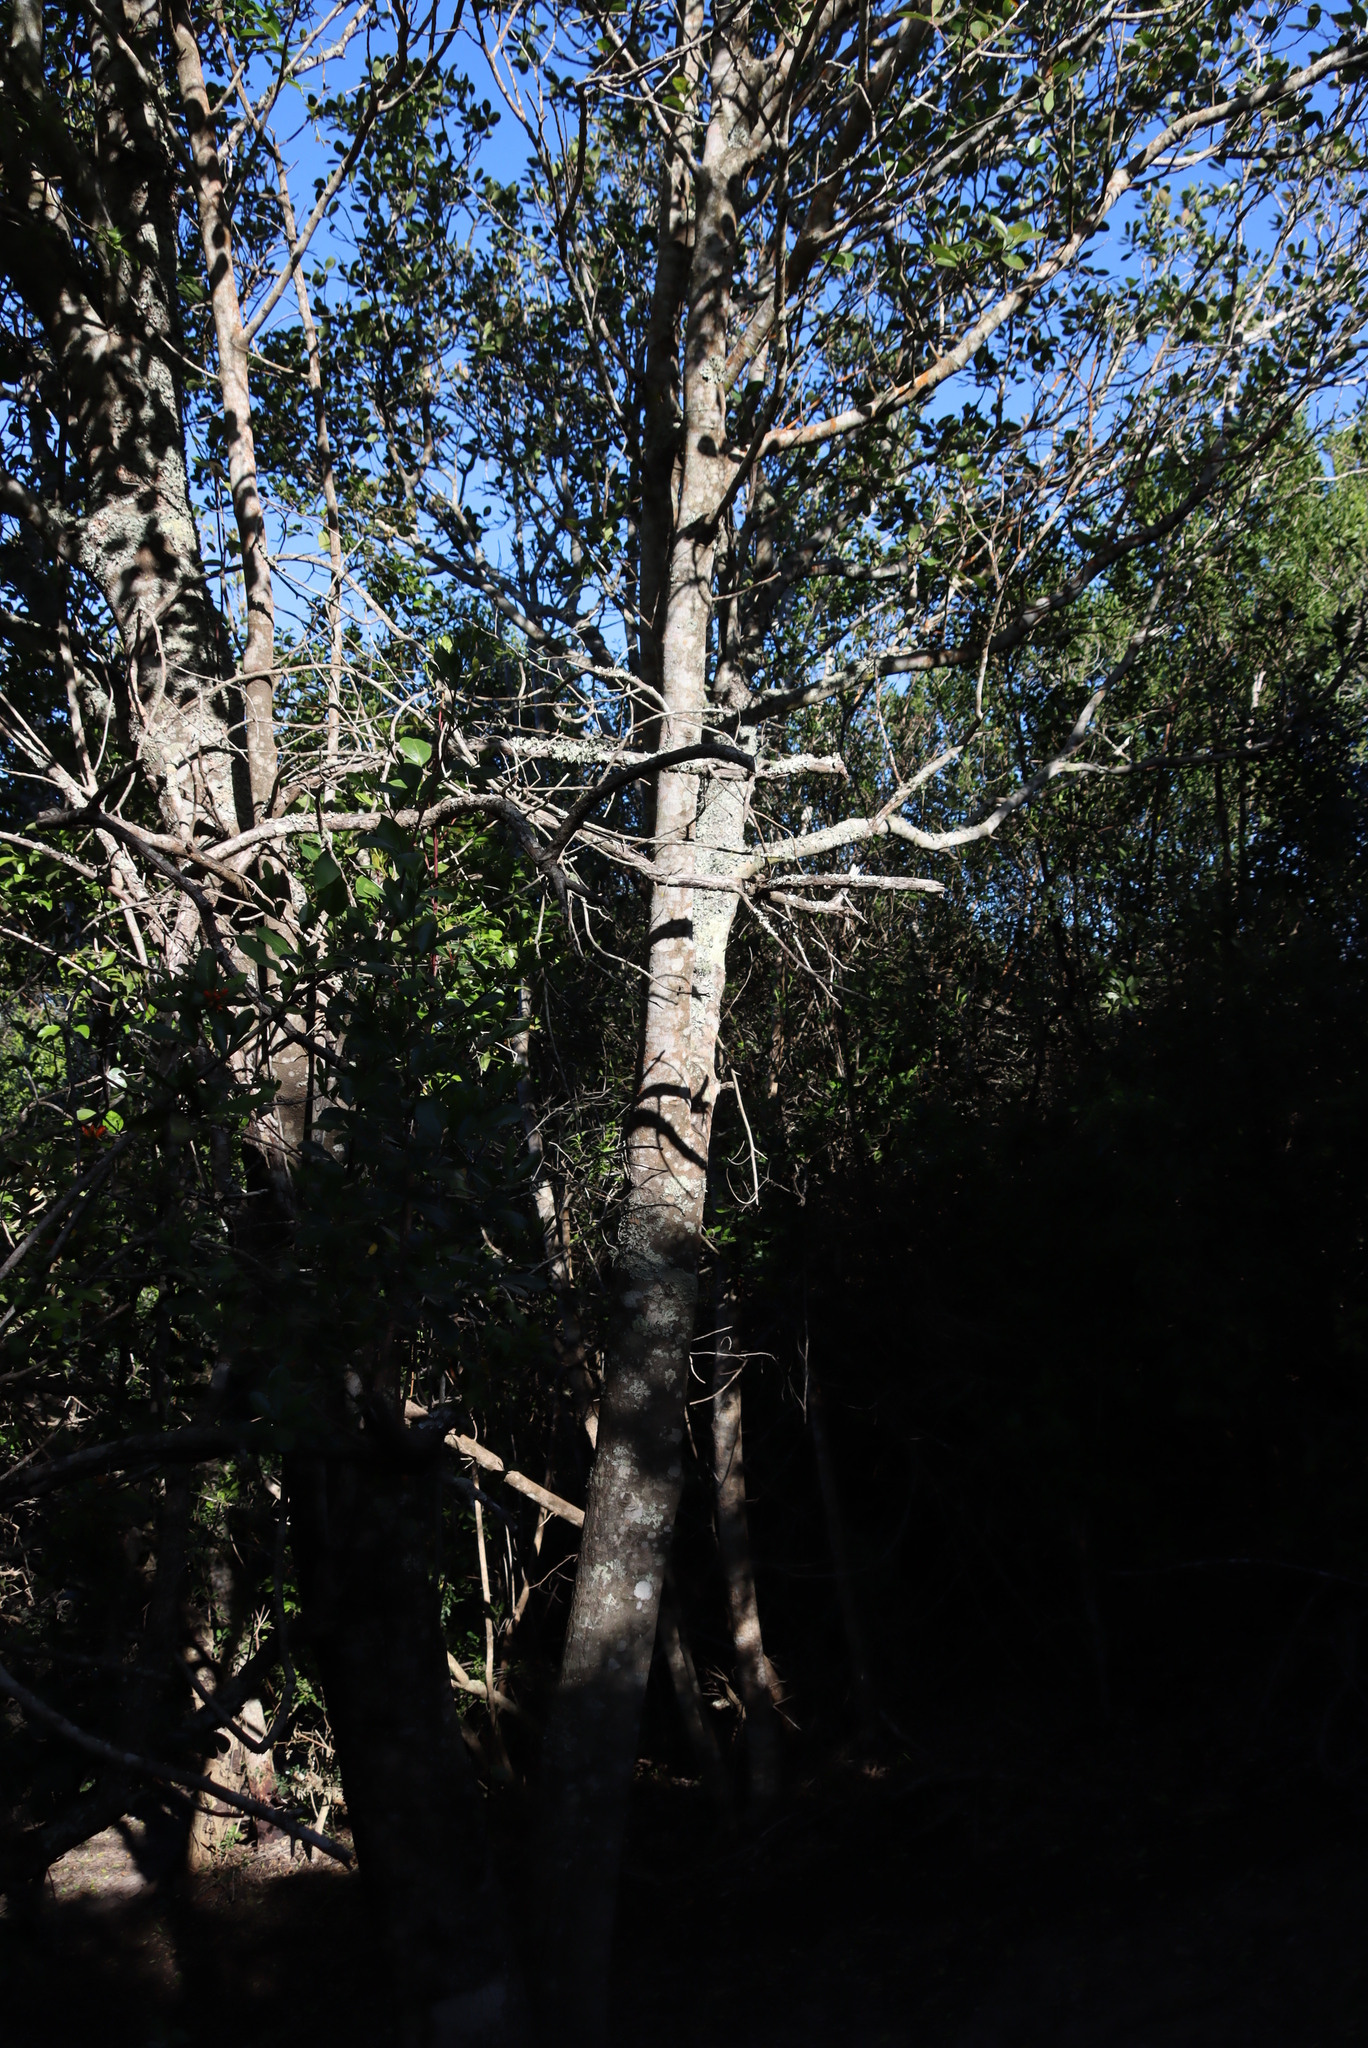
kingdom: Plantae
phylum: Tracheophyta
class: Magnoliopsida
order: Celastrales
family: Celastraceae
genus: Pterocelastrus
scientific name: Pterocelastrus tricuspidatus
